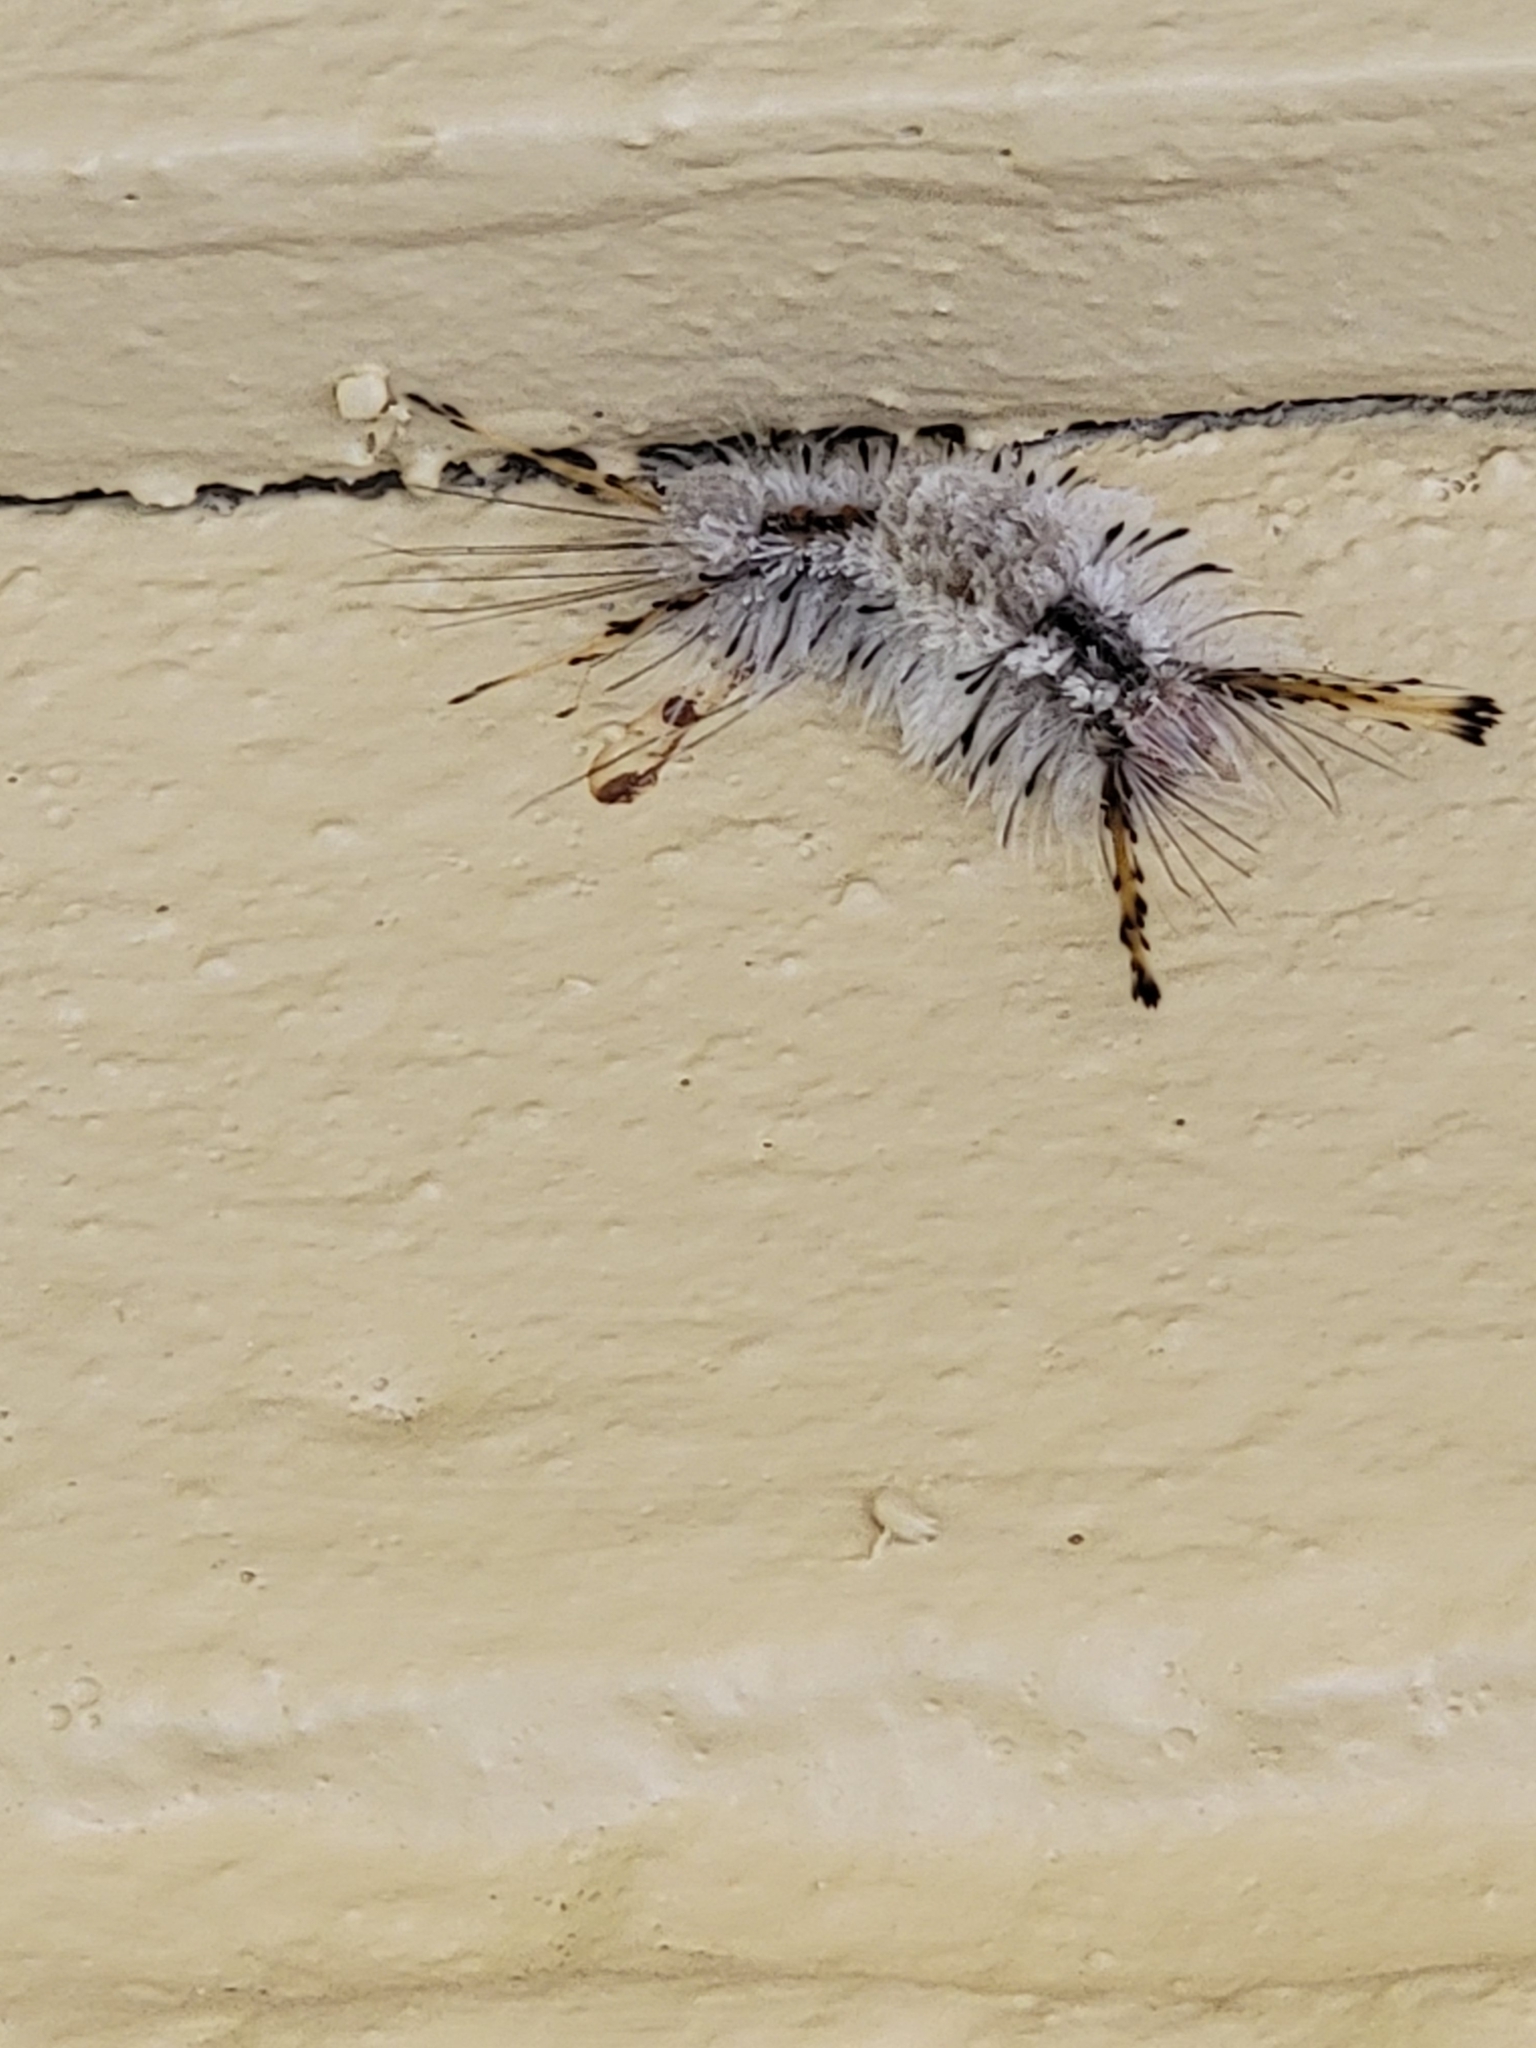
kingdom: Animalia
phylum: Arthropoda
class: Insecta
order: Lepidoptera
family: Erebidae
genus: Dasychira
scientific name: Dasychira meridionalis
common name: Southern tussock moth
